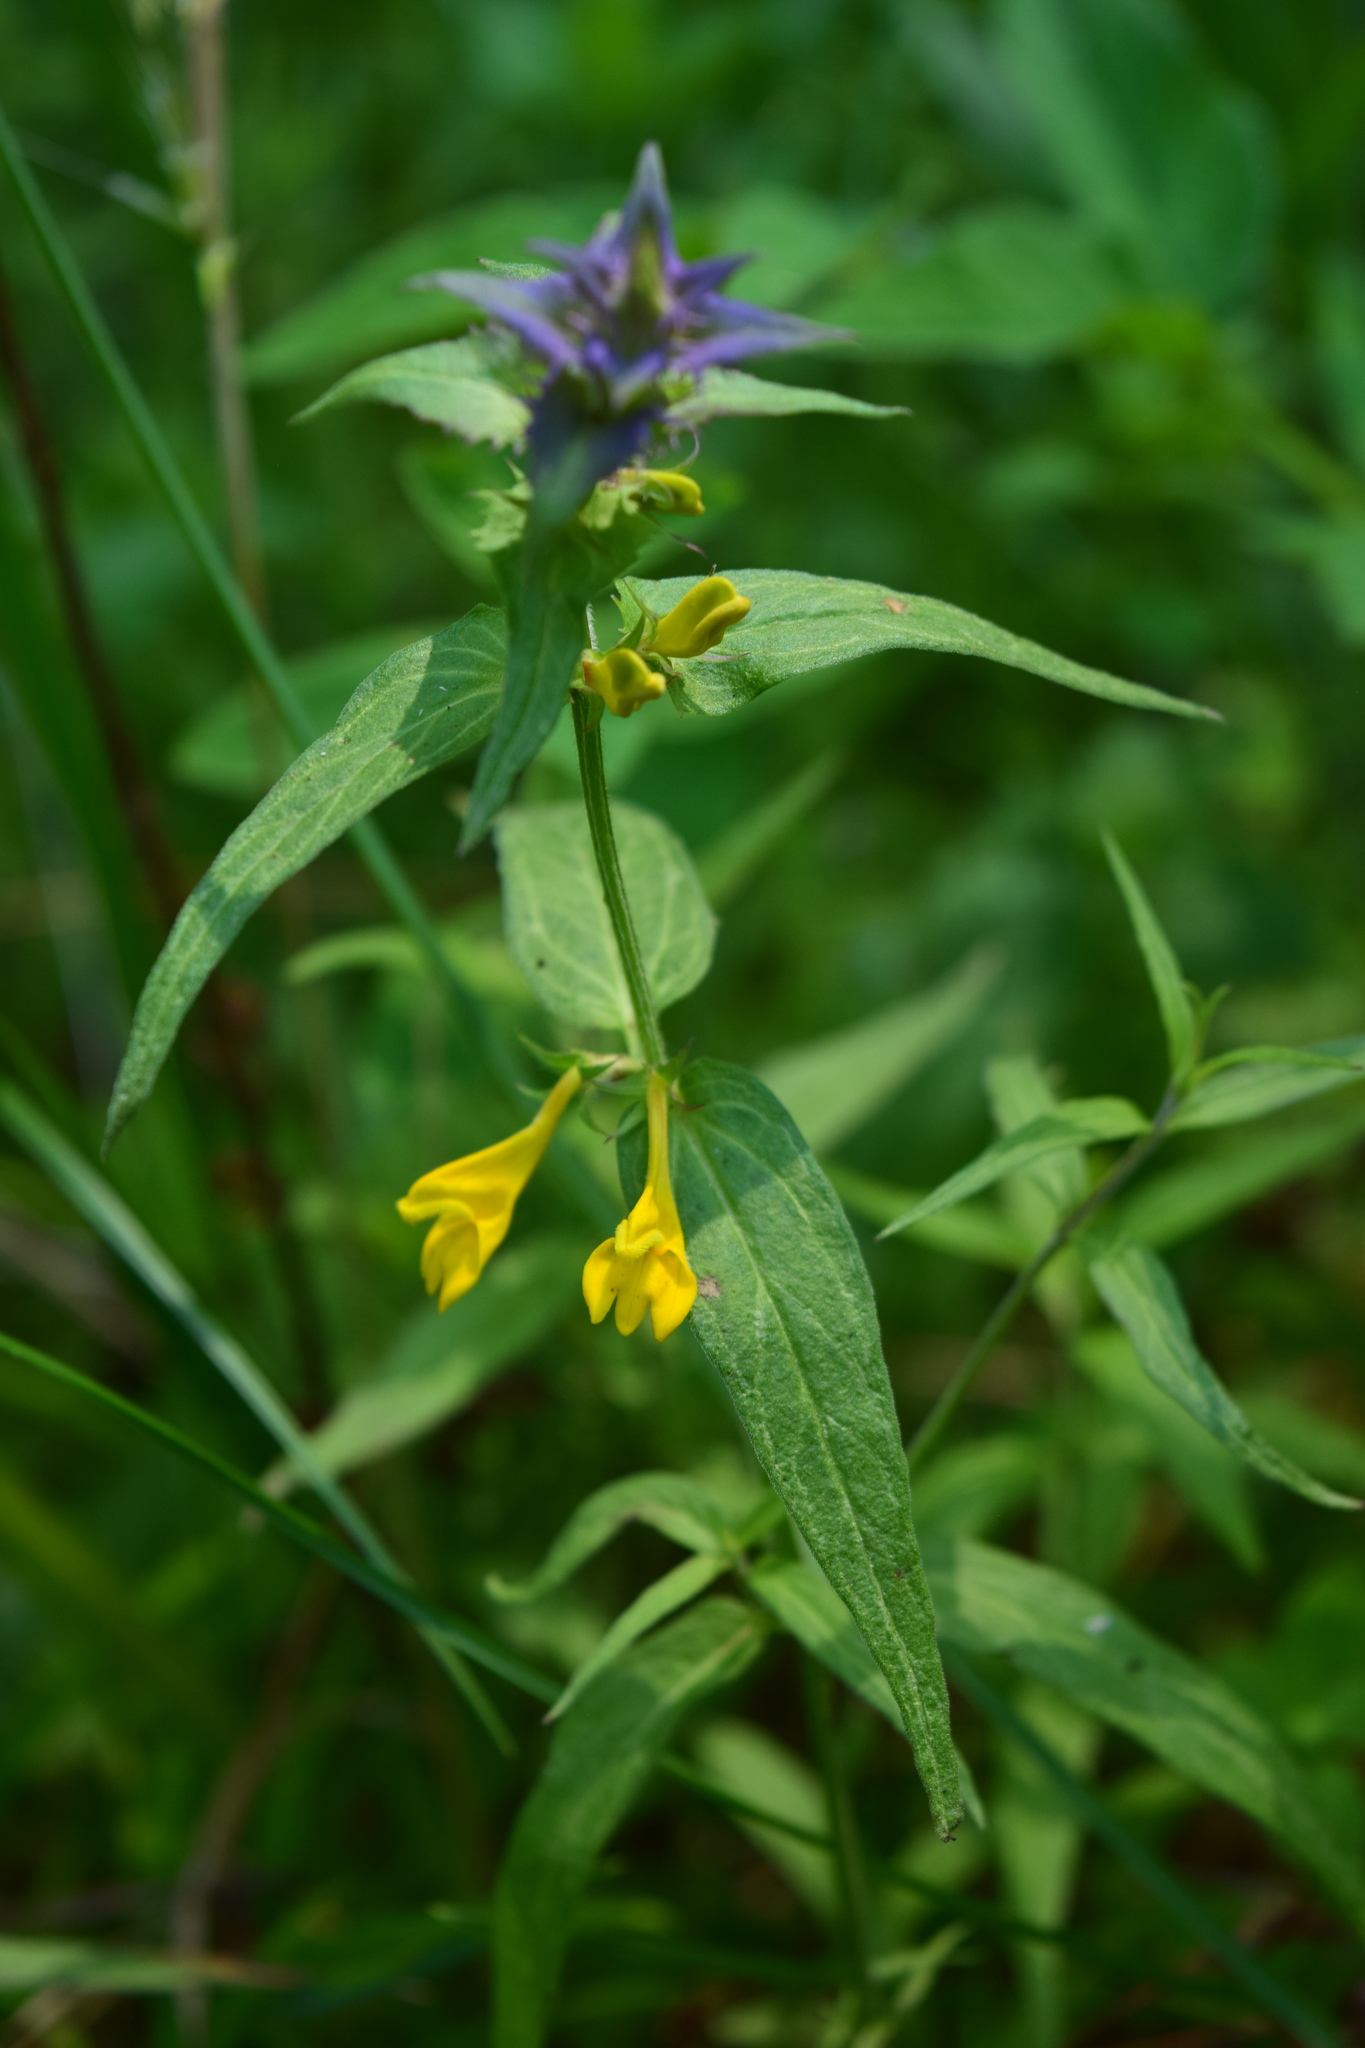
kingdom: Plantae
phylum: Tracheophyta
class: Magnoliopsida
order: Lamiales
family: Orobanchaceae
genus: Melampyrum
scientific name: Melampyrum nemorosum
